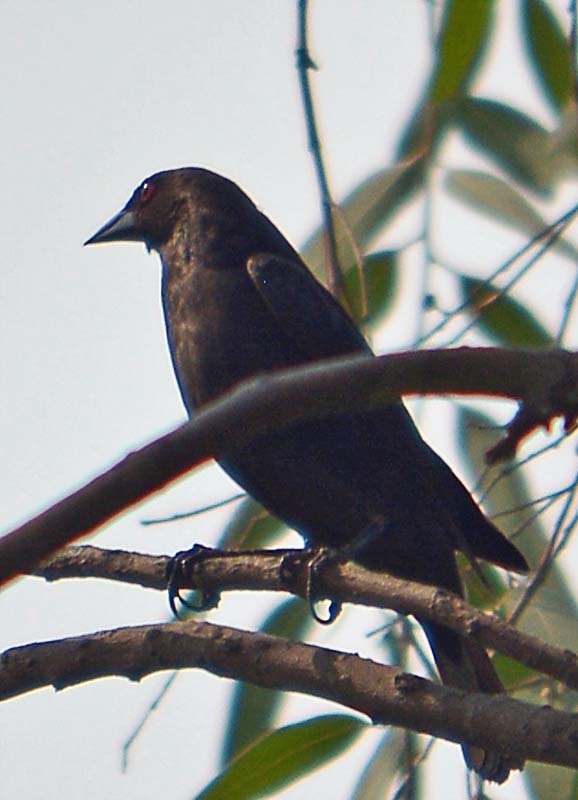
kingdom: Animalia
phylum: Chordata
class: Aves
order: Passeriformes
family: Icteridae
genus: Molothrus
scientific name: Molothrus aeneus
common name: Bronzed cowbird
